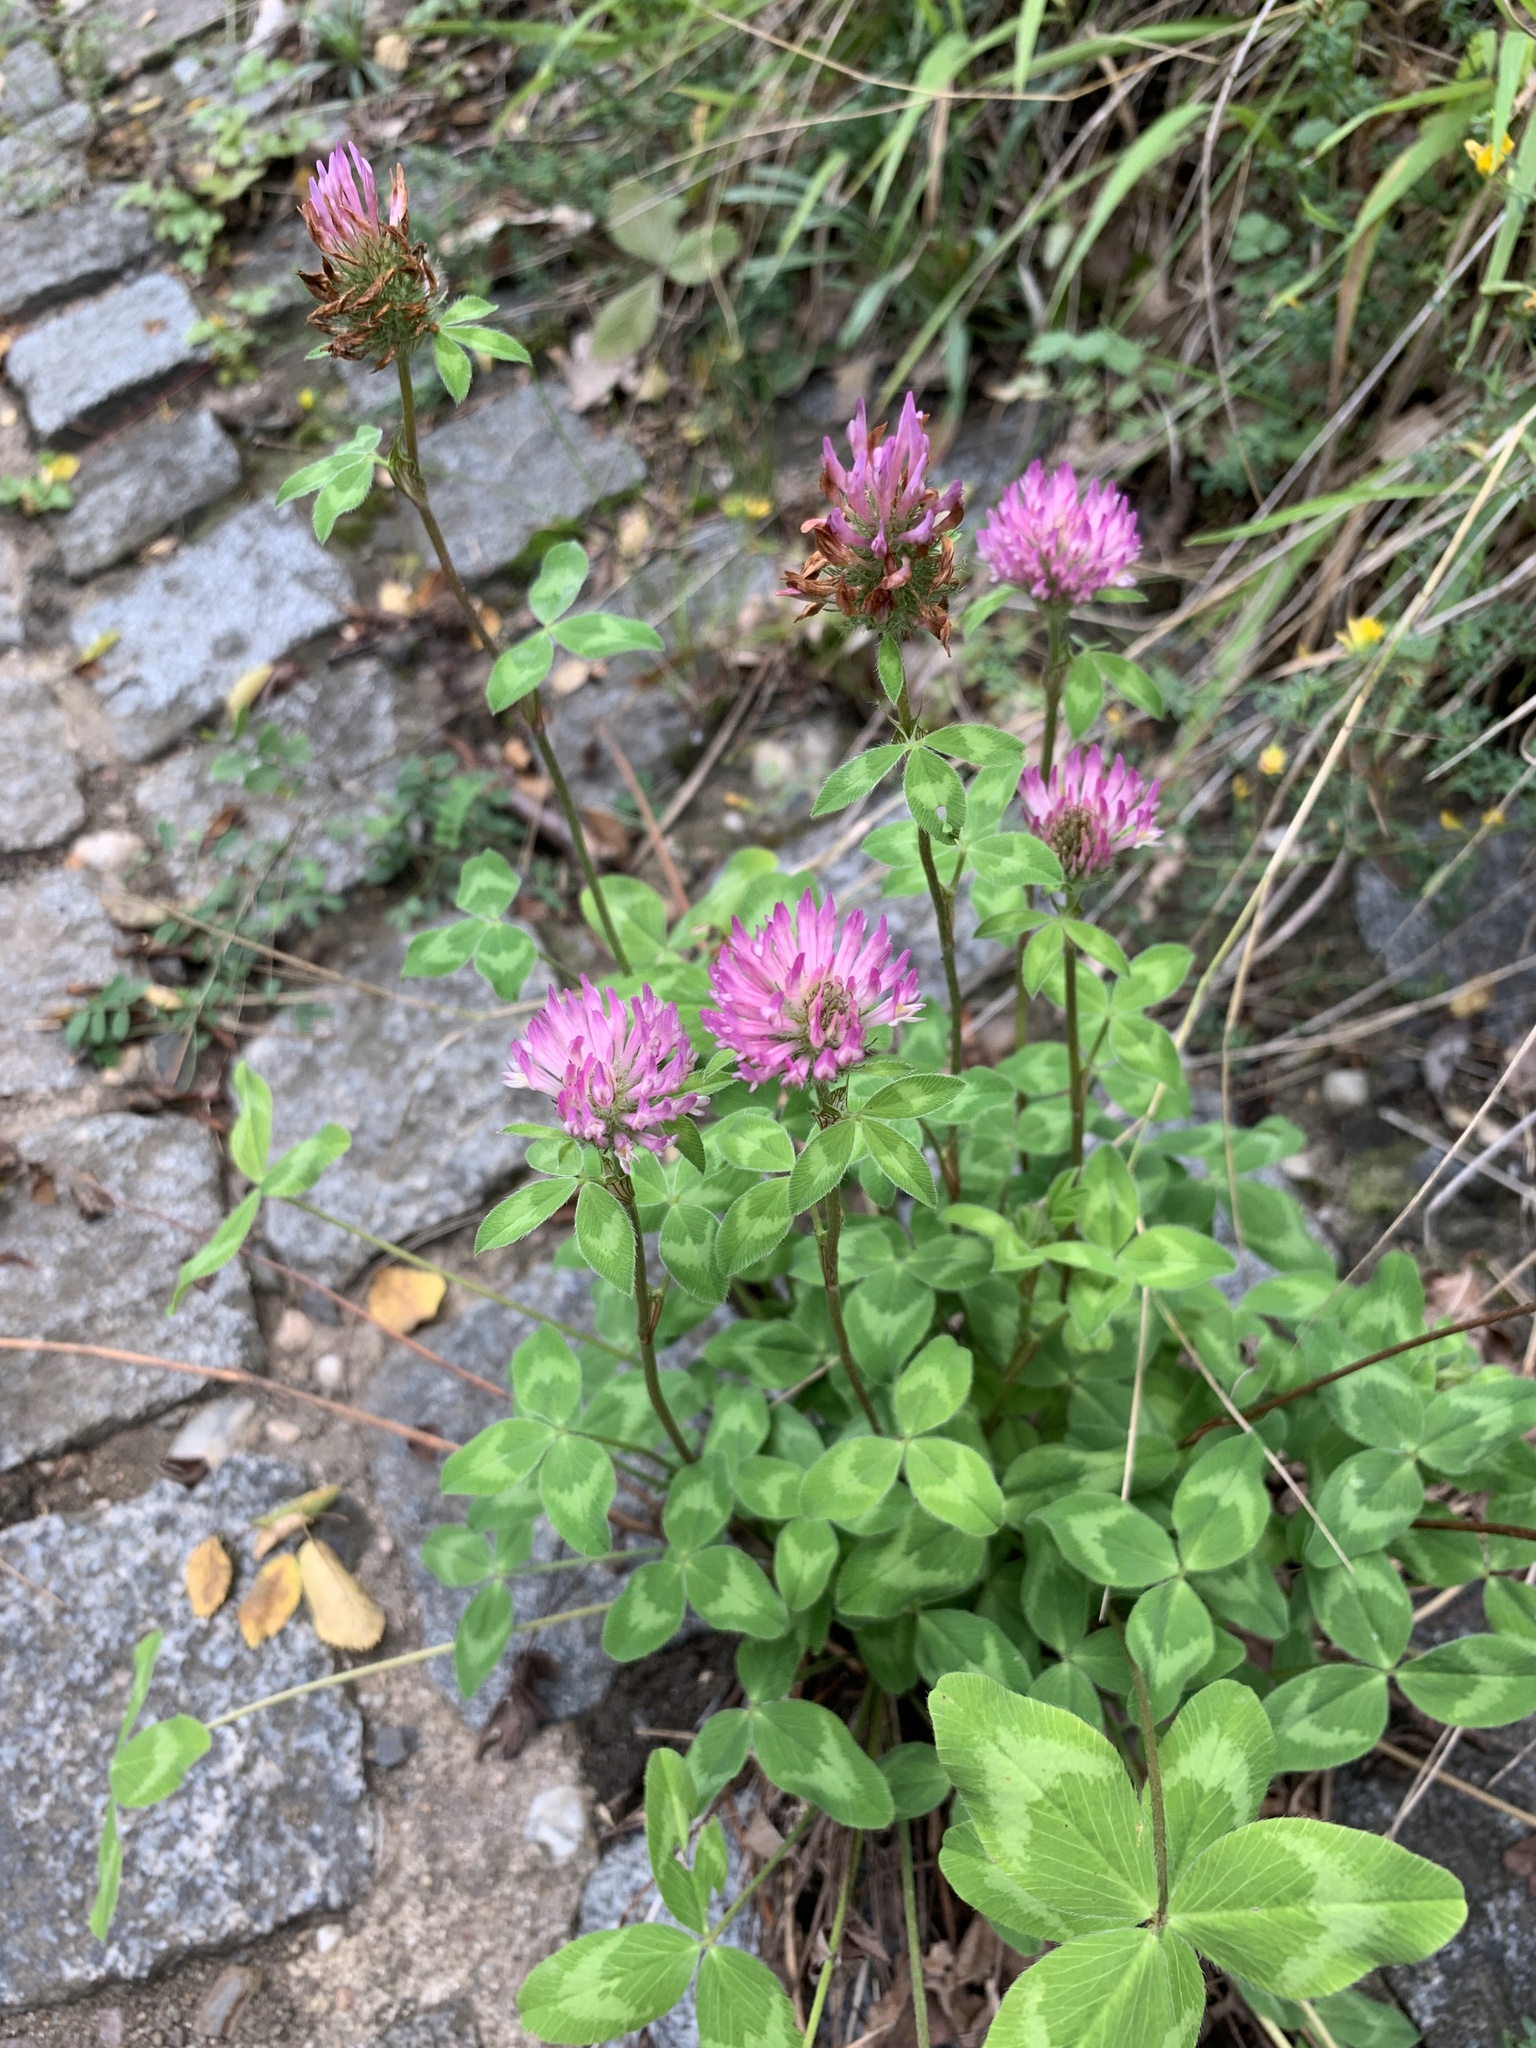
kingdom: Plantae
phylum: Tracheophyta
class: Magnoliopsida
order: Fabales
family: Fabaceae
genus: Trifolium
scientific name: Trifolium pratense
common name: Red clover
